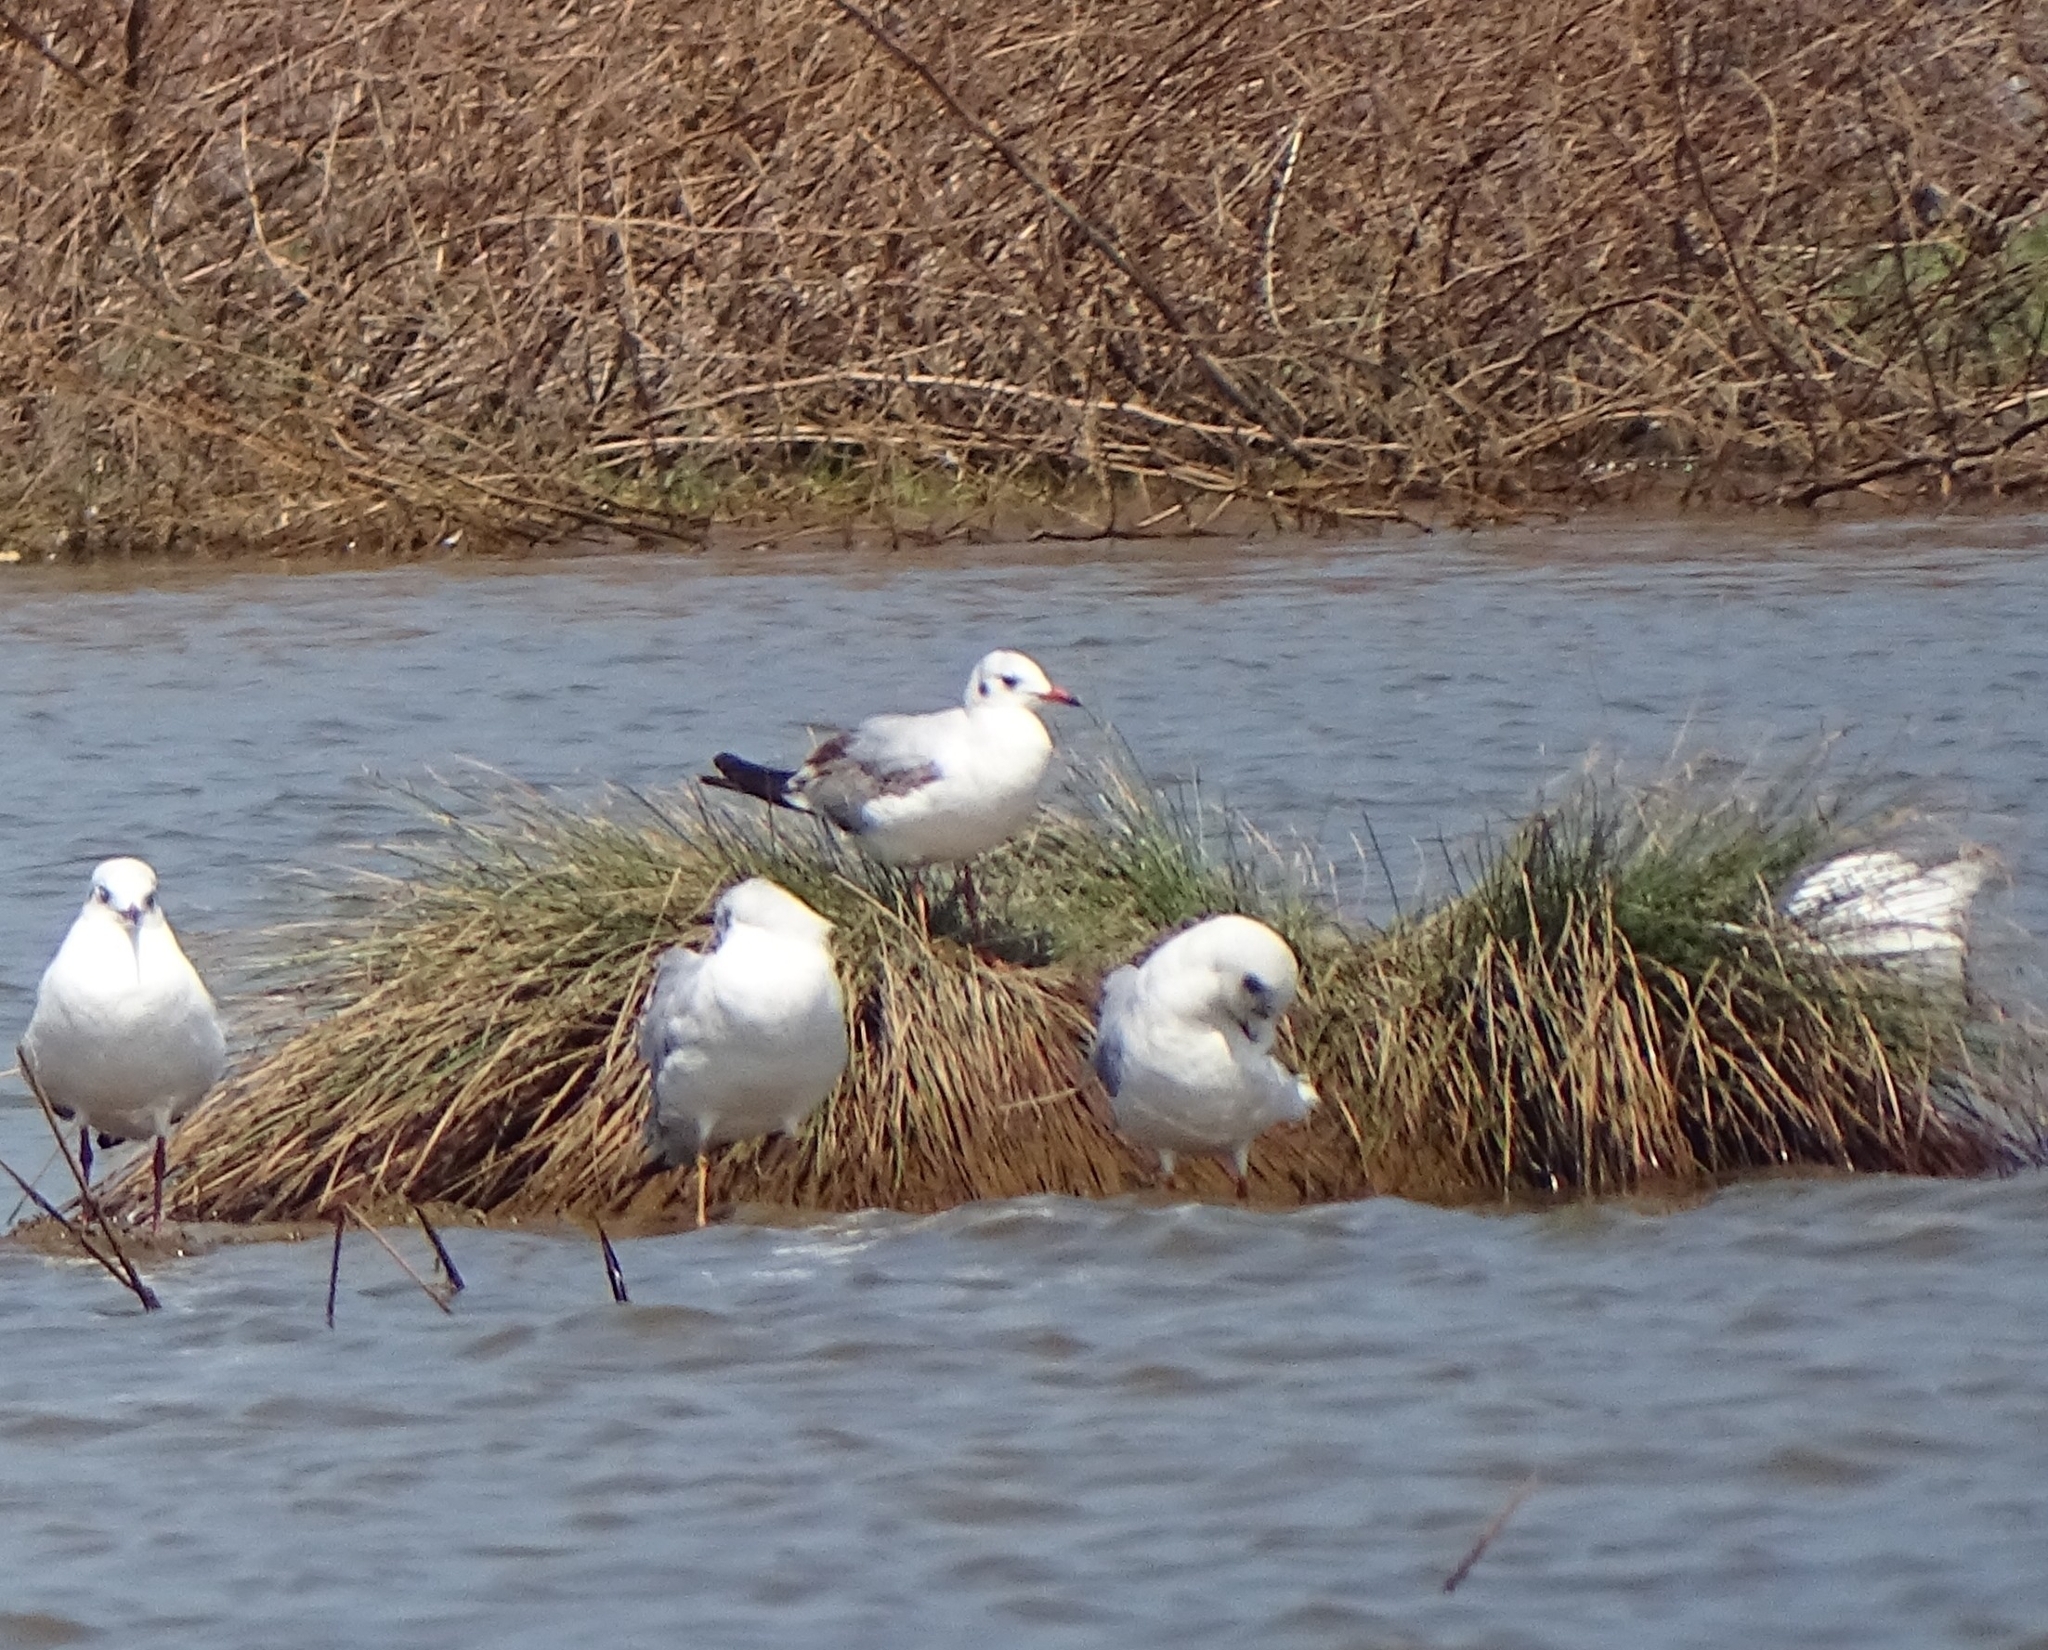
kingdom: Animalia
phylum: Chordata
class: Aves
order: Charadriiformes
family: Laridae
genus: Chroicocephalus
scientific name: Chroicocephalus brunnicephalus
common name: Brown-headed gull
